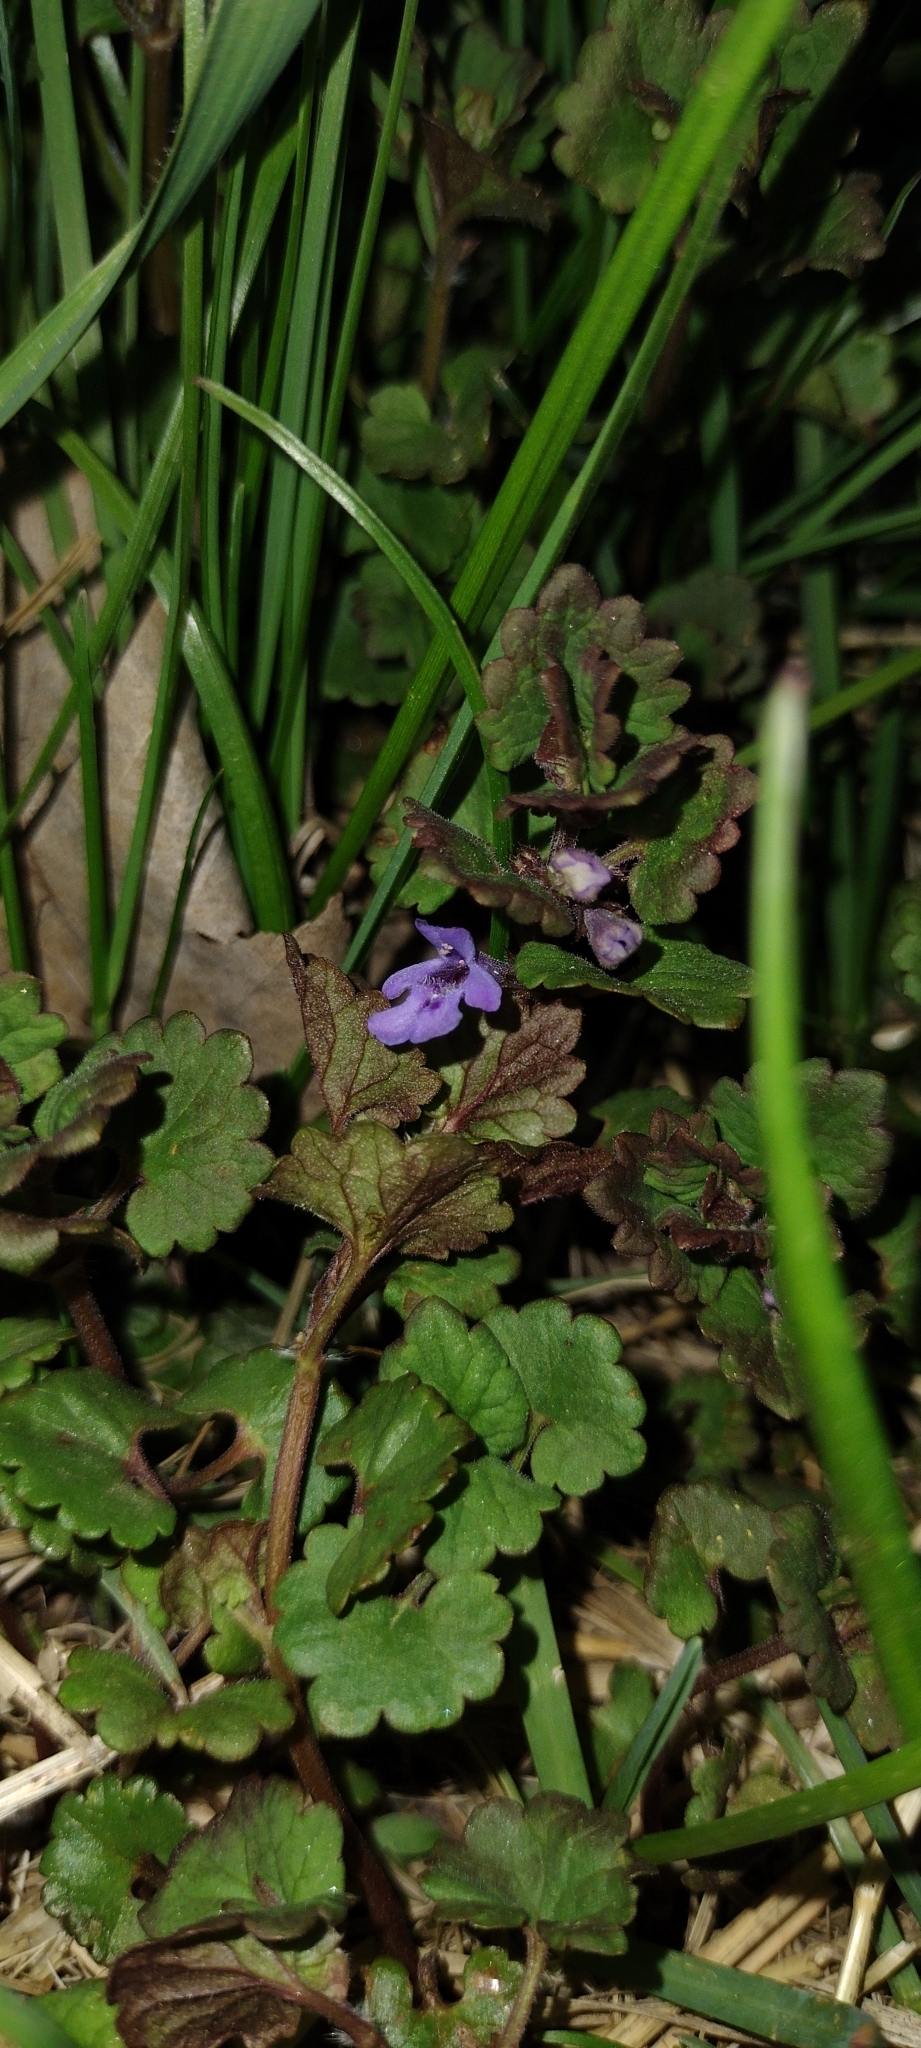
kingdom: Plantae
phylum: Tracheophyta
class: Magnoliopsida
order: Lamiales
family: Lamiaceae
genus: Glechoma
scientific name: Glechoma hederacea
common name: Ground ivy
